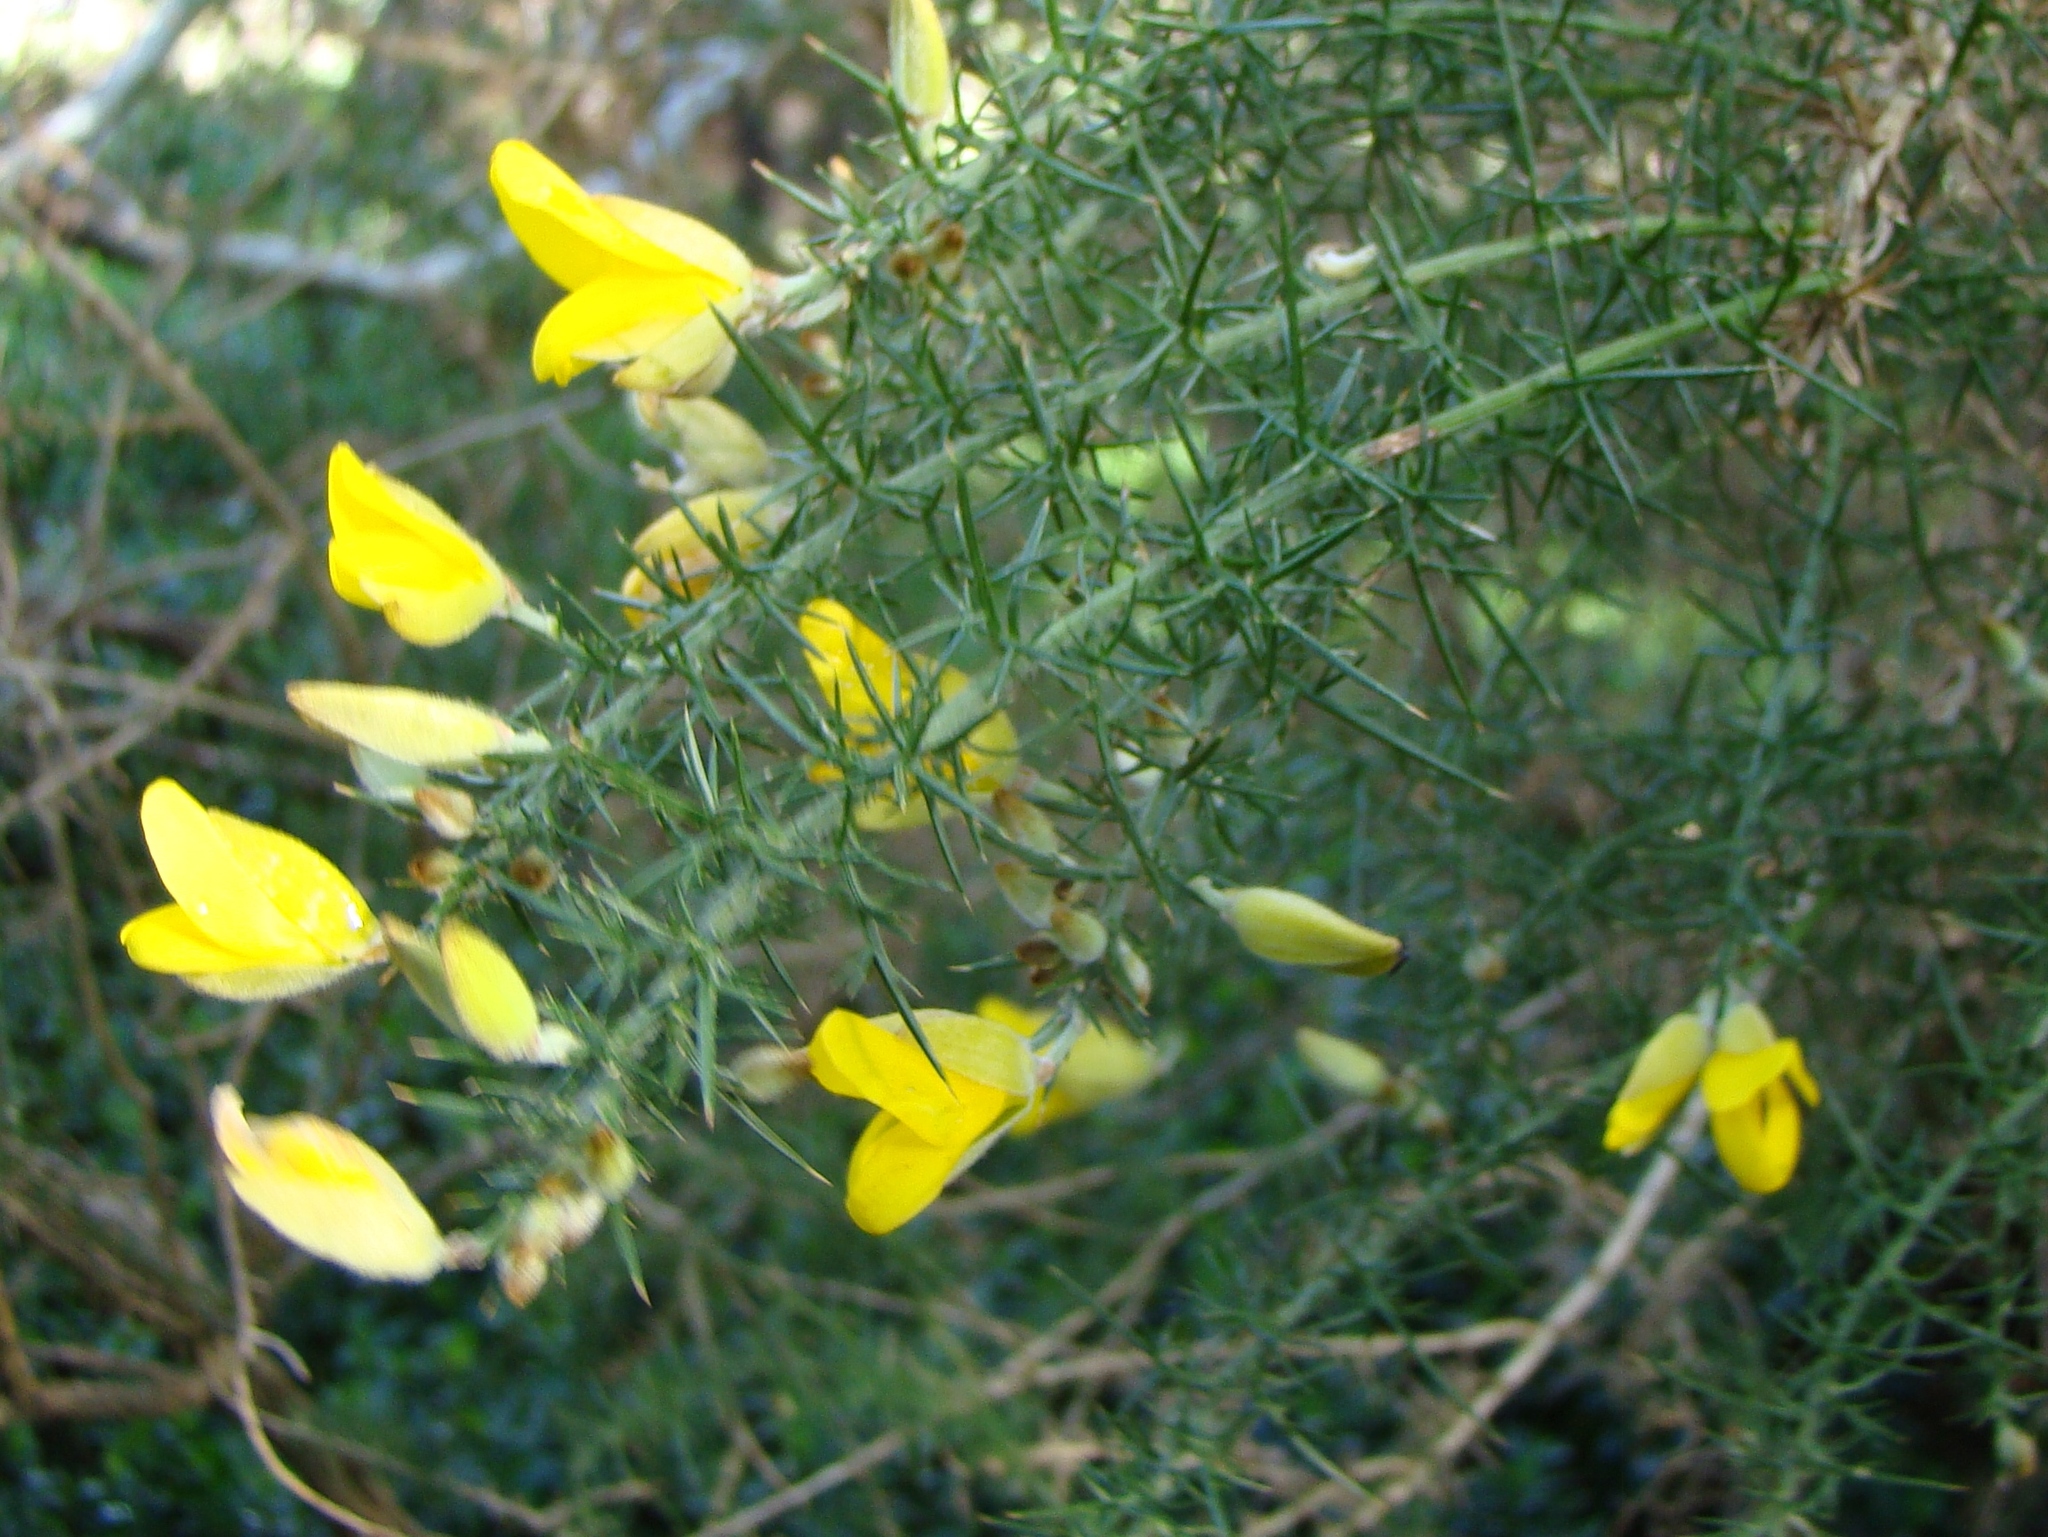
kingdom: Plantae
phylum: Tracheophyta
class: Magnoliopsida
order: Fabales
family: Fabaceae
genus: Ulex
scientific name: Ulex europaeus
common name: Common gorse
